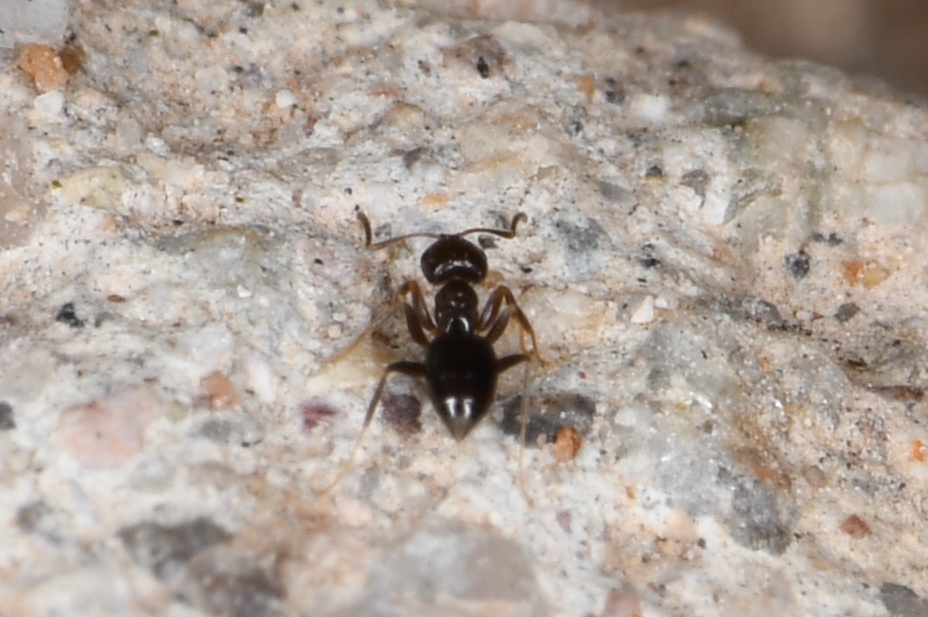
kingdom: Animalia
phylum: Arthropoda
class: Insecta
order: Hymenoptera
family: Formicidae
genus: Brachymyrmex
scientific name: Brachymyrmex patagonicus
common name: Dark rover ant
